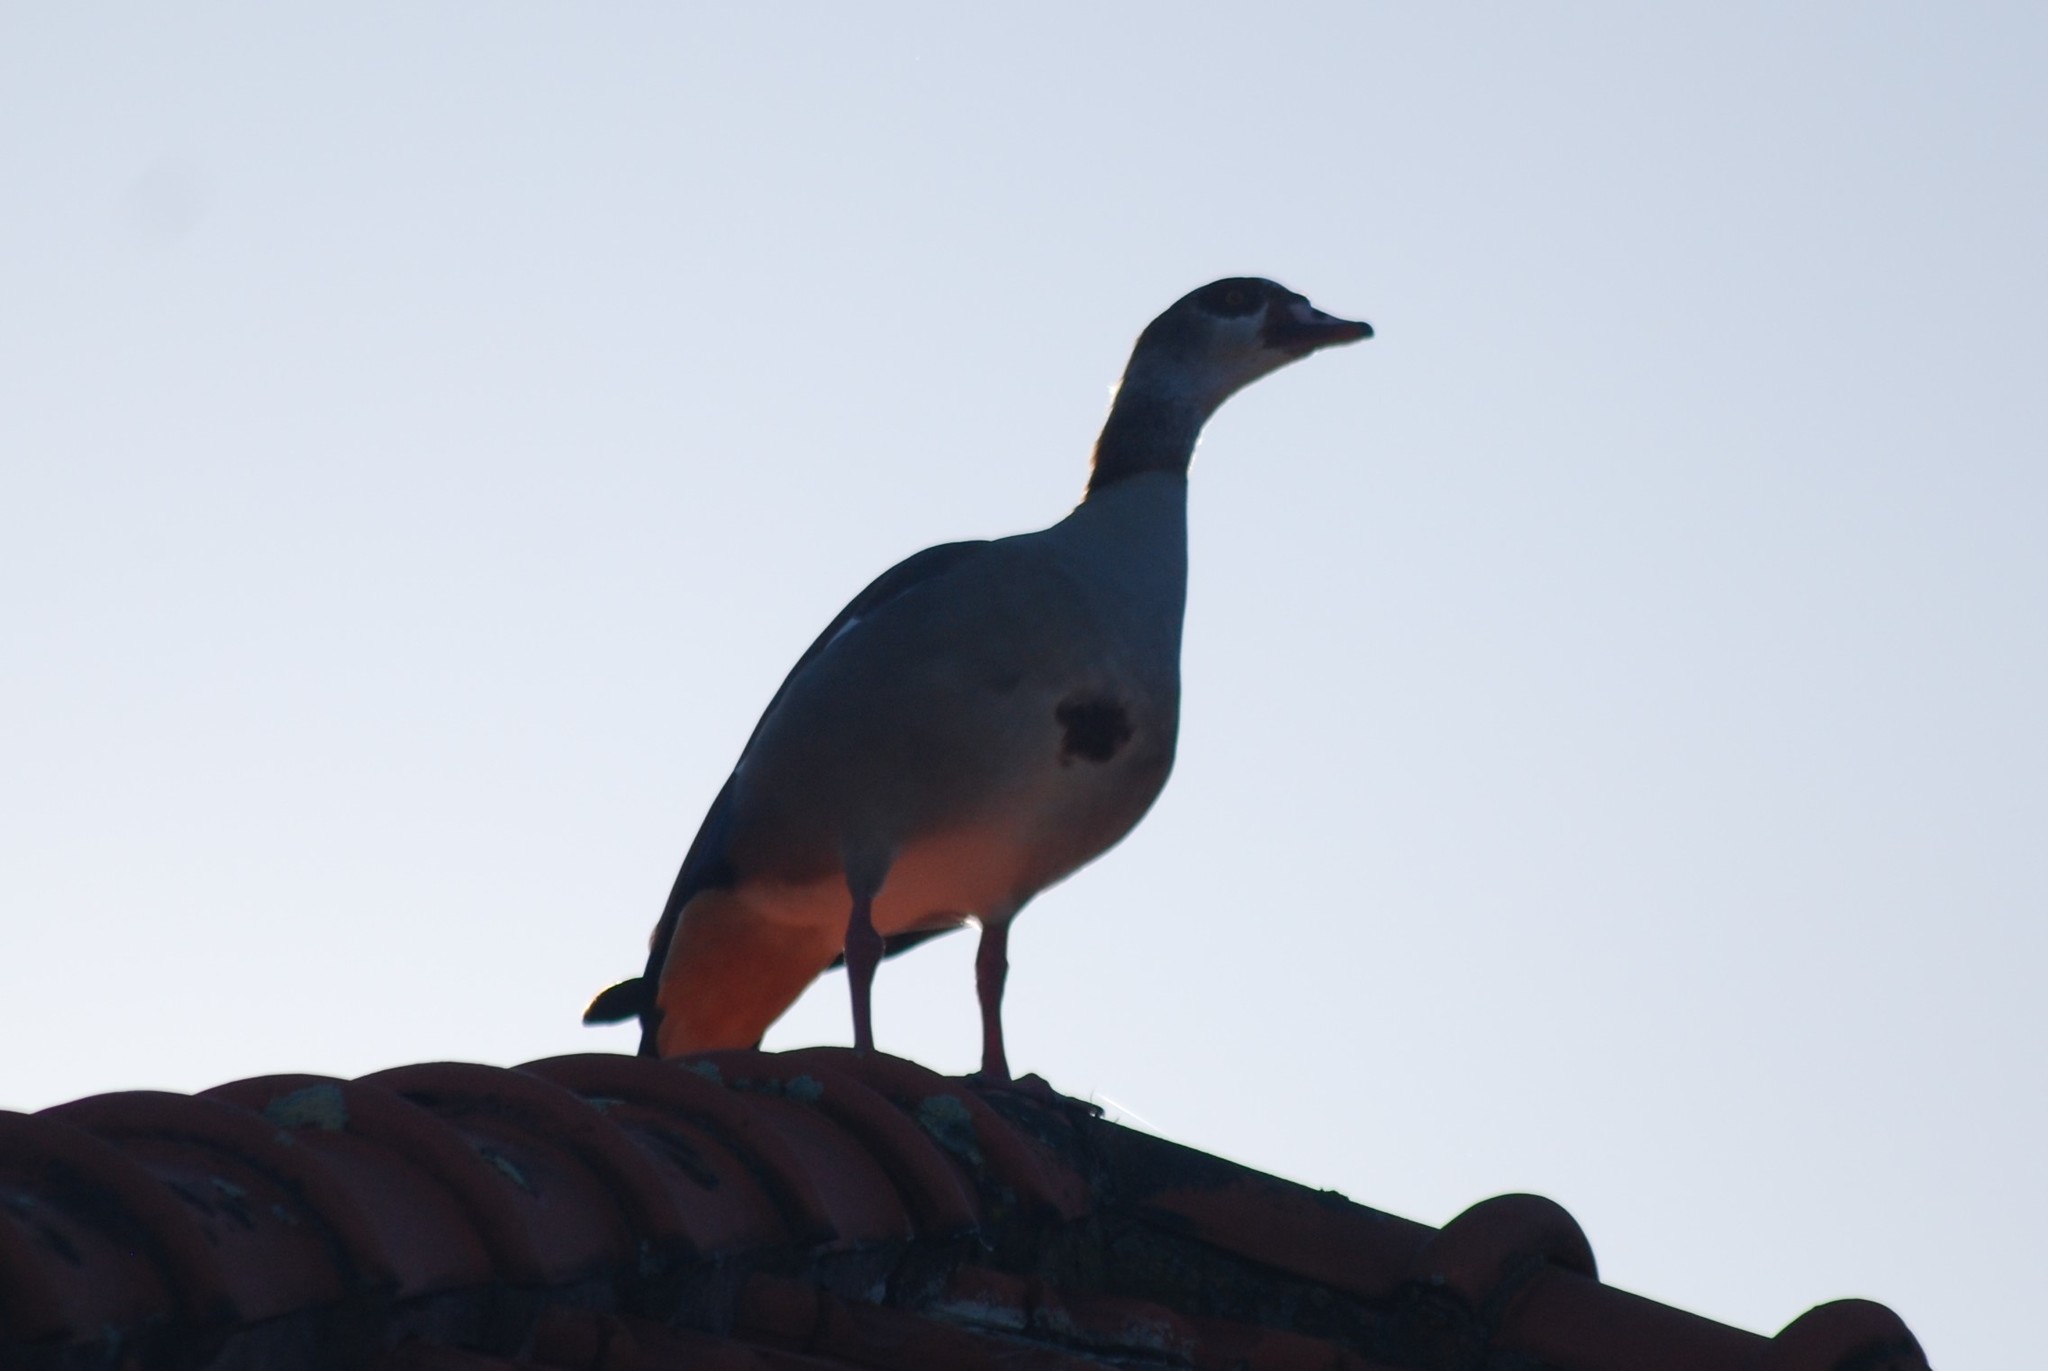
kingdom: Animalia
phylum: Chordata
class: Aves
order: Anseriformes
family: Anatidae
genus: Alopochen
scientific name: Alopochen aegyptiaca
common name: Egyptian goose
